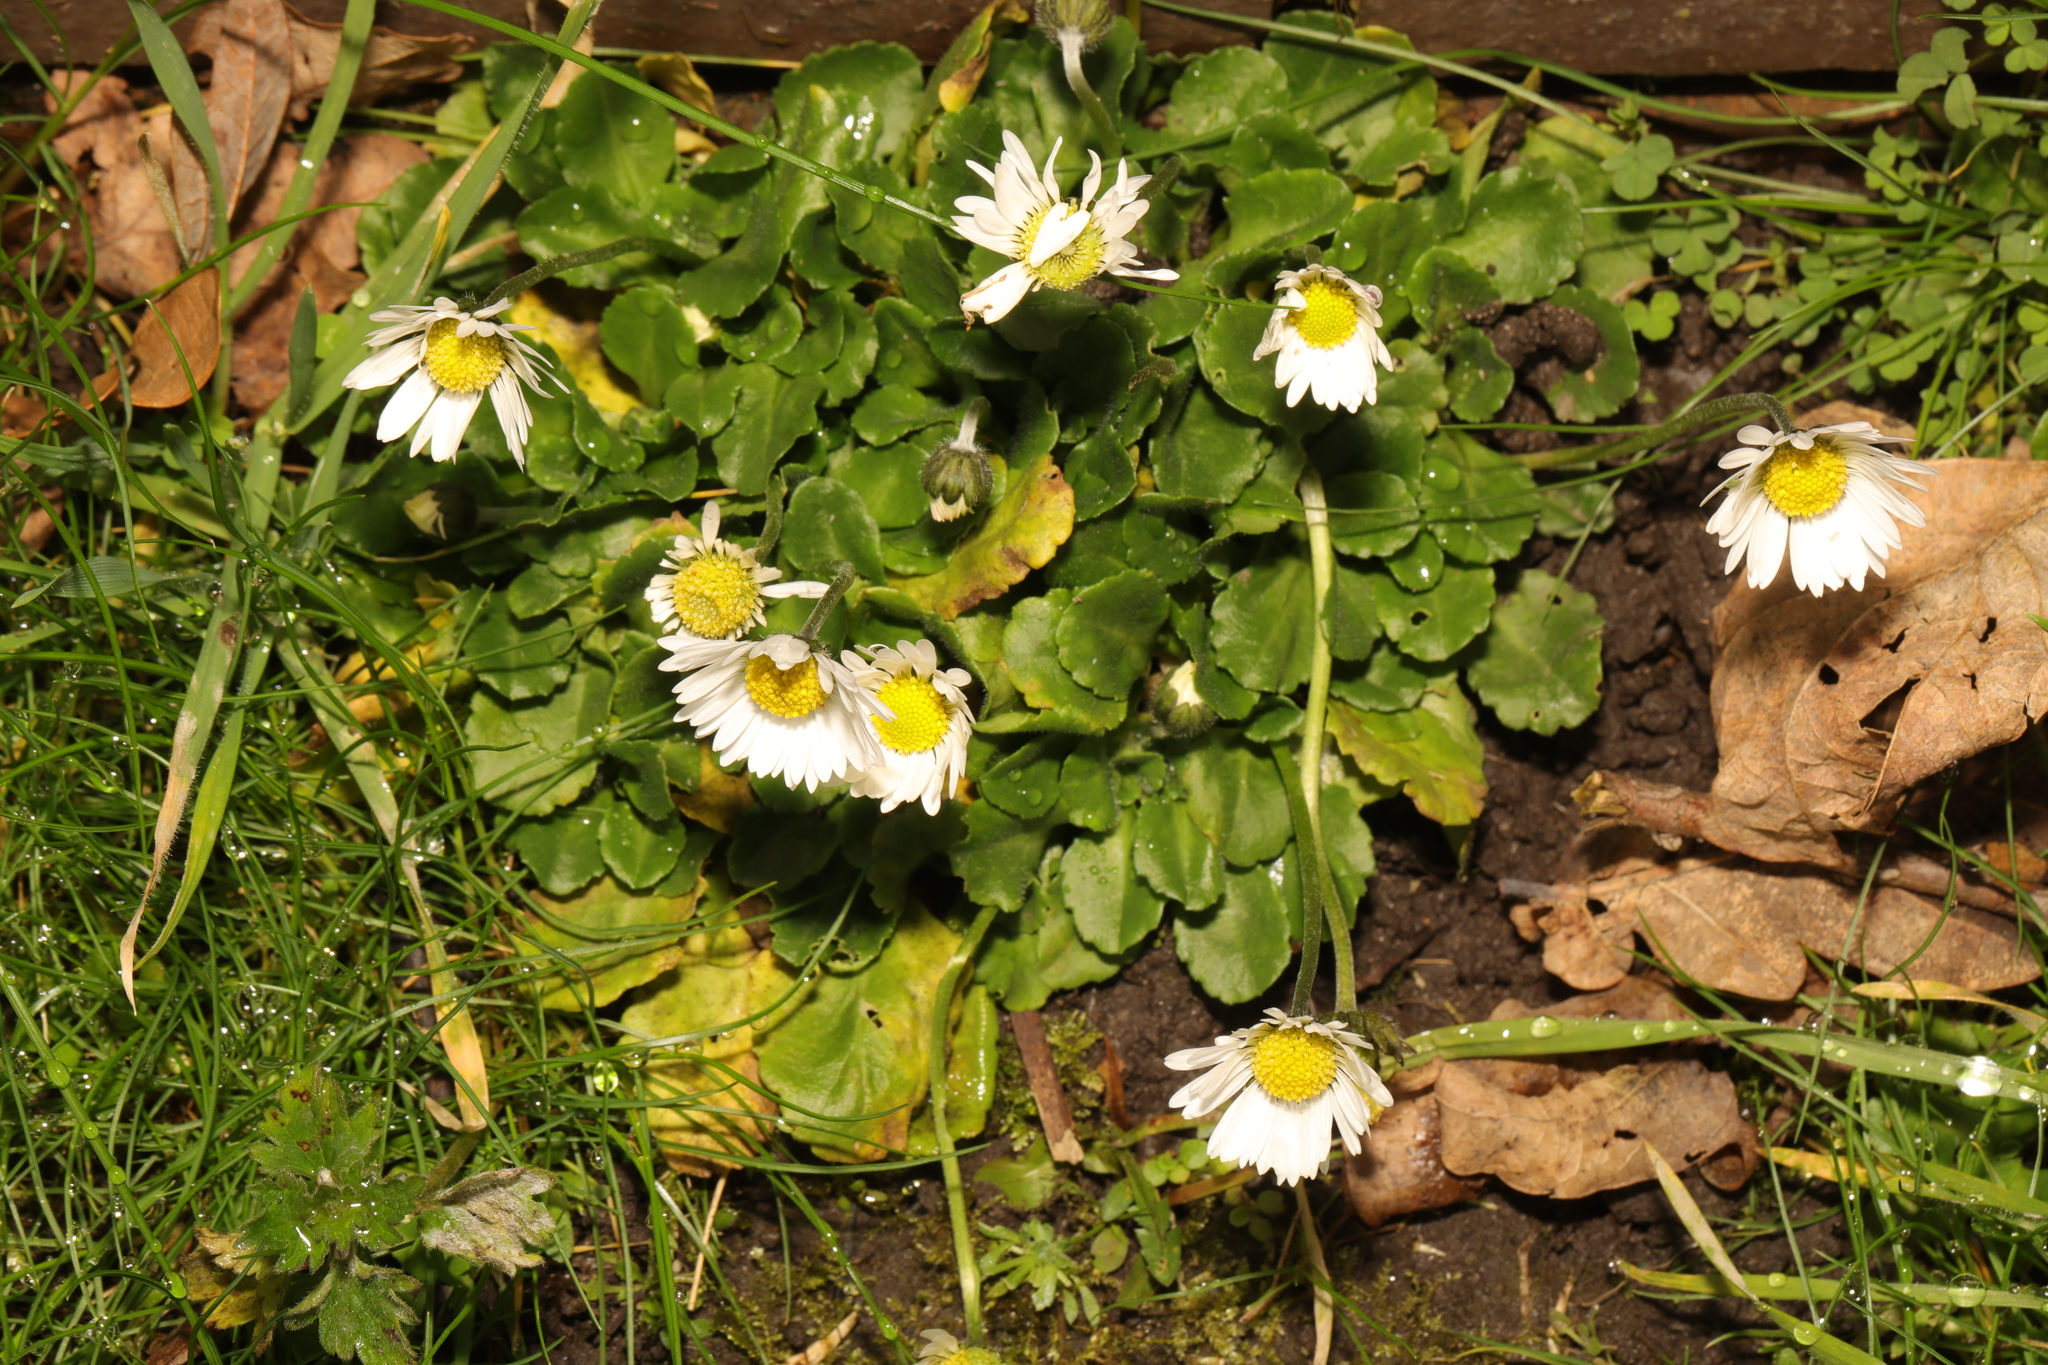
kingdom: Plantae
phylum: Tracheophyta
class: Magnoliopsida
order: Asterales
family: Asteraceae
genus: Bellis
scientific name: Bellis perennis
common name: Lawndaisy
